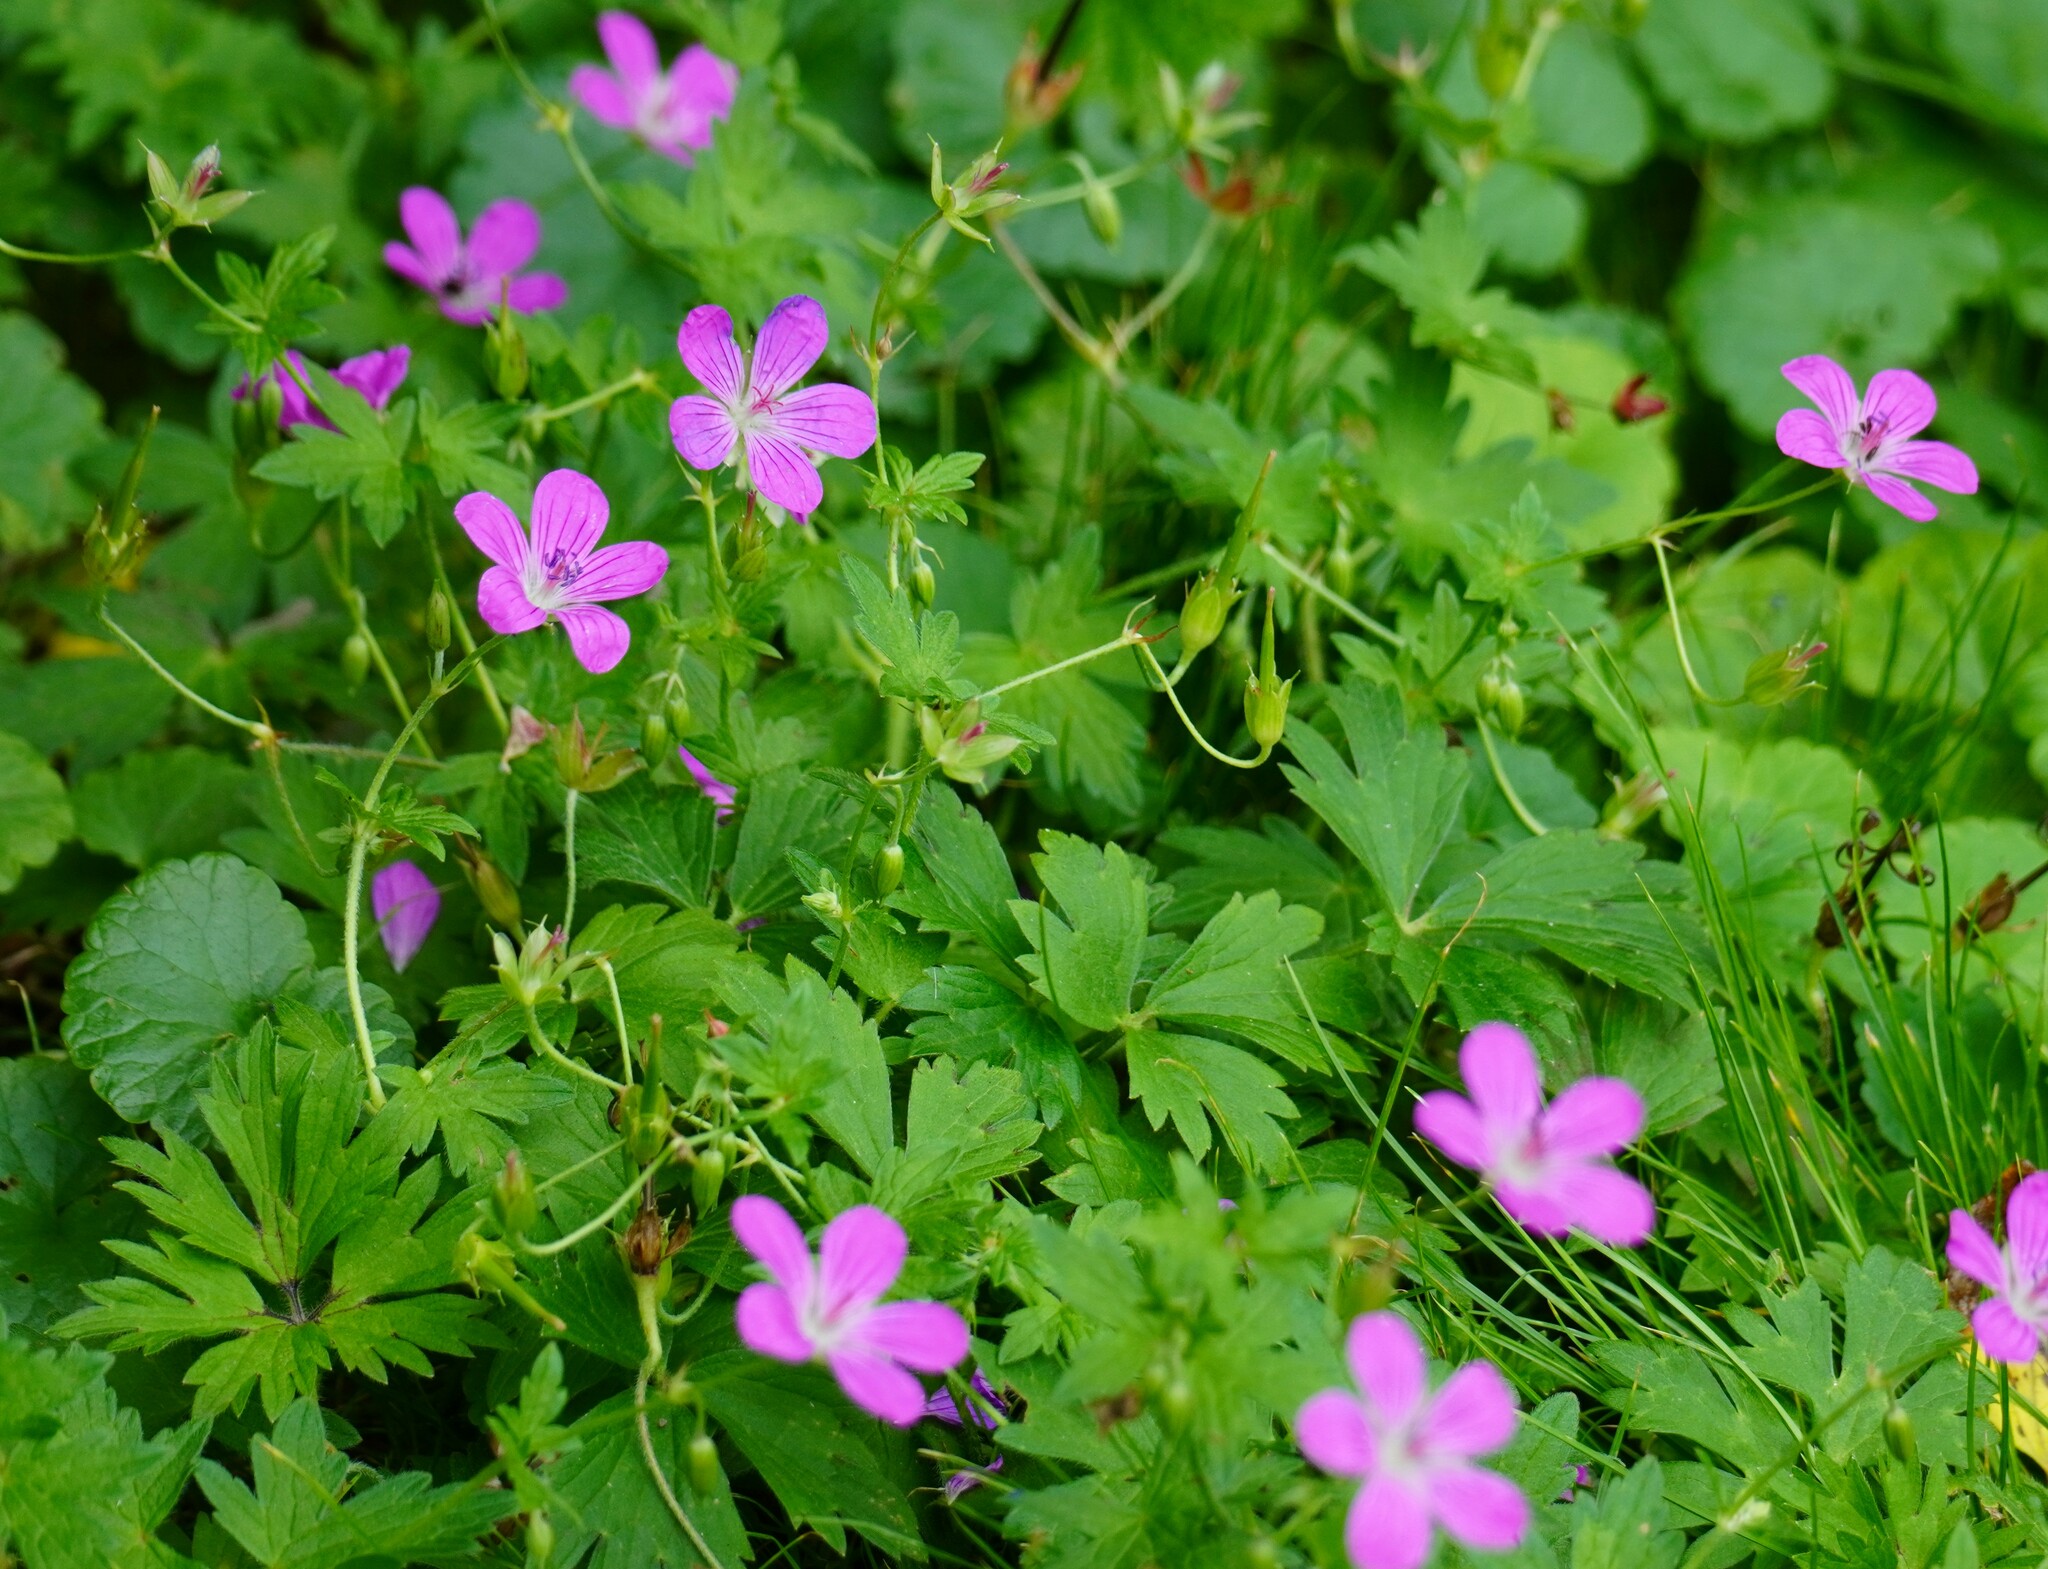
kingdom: Plantae
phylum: Tracheophyta
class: Magnoliopsida
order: Geraniales
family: Geraniaceae
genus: Geranium
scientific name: Geranium palustre
